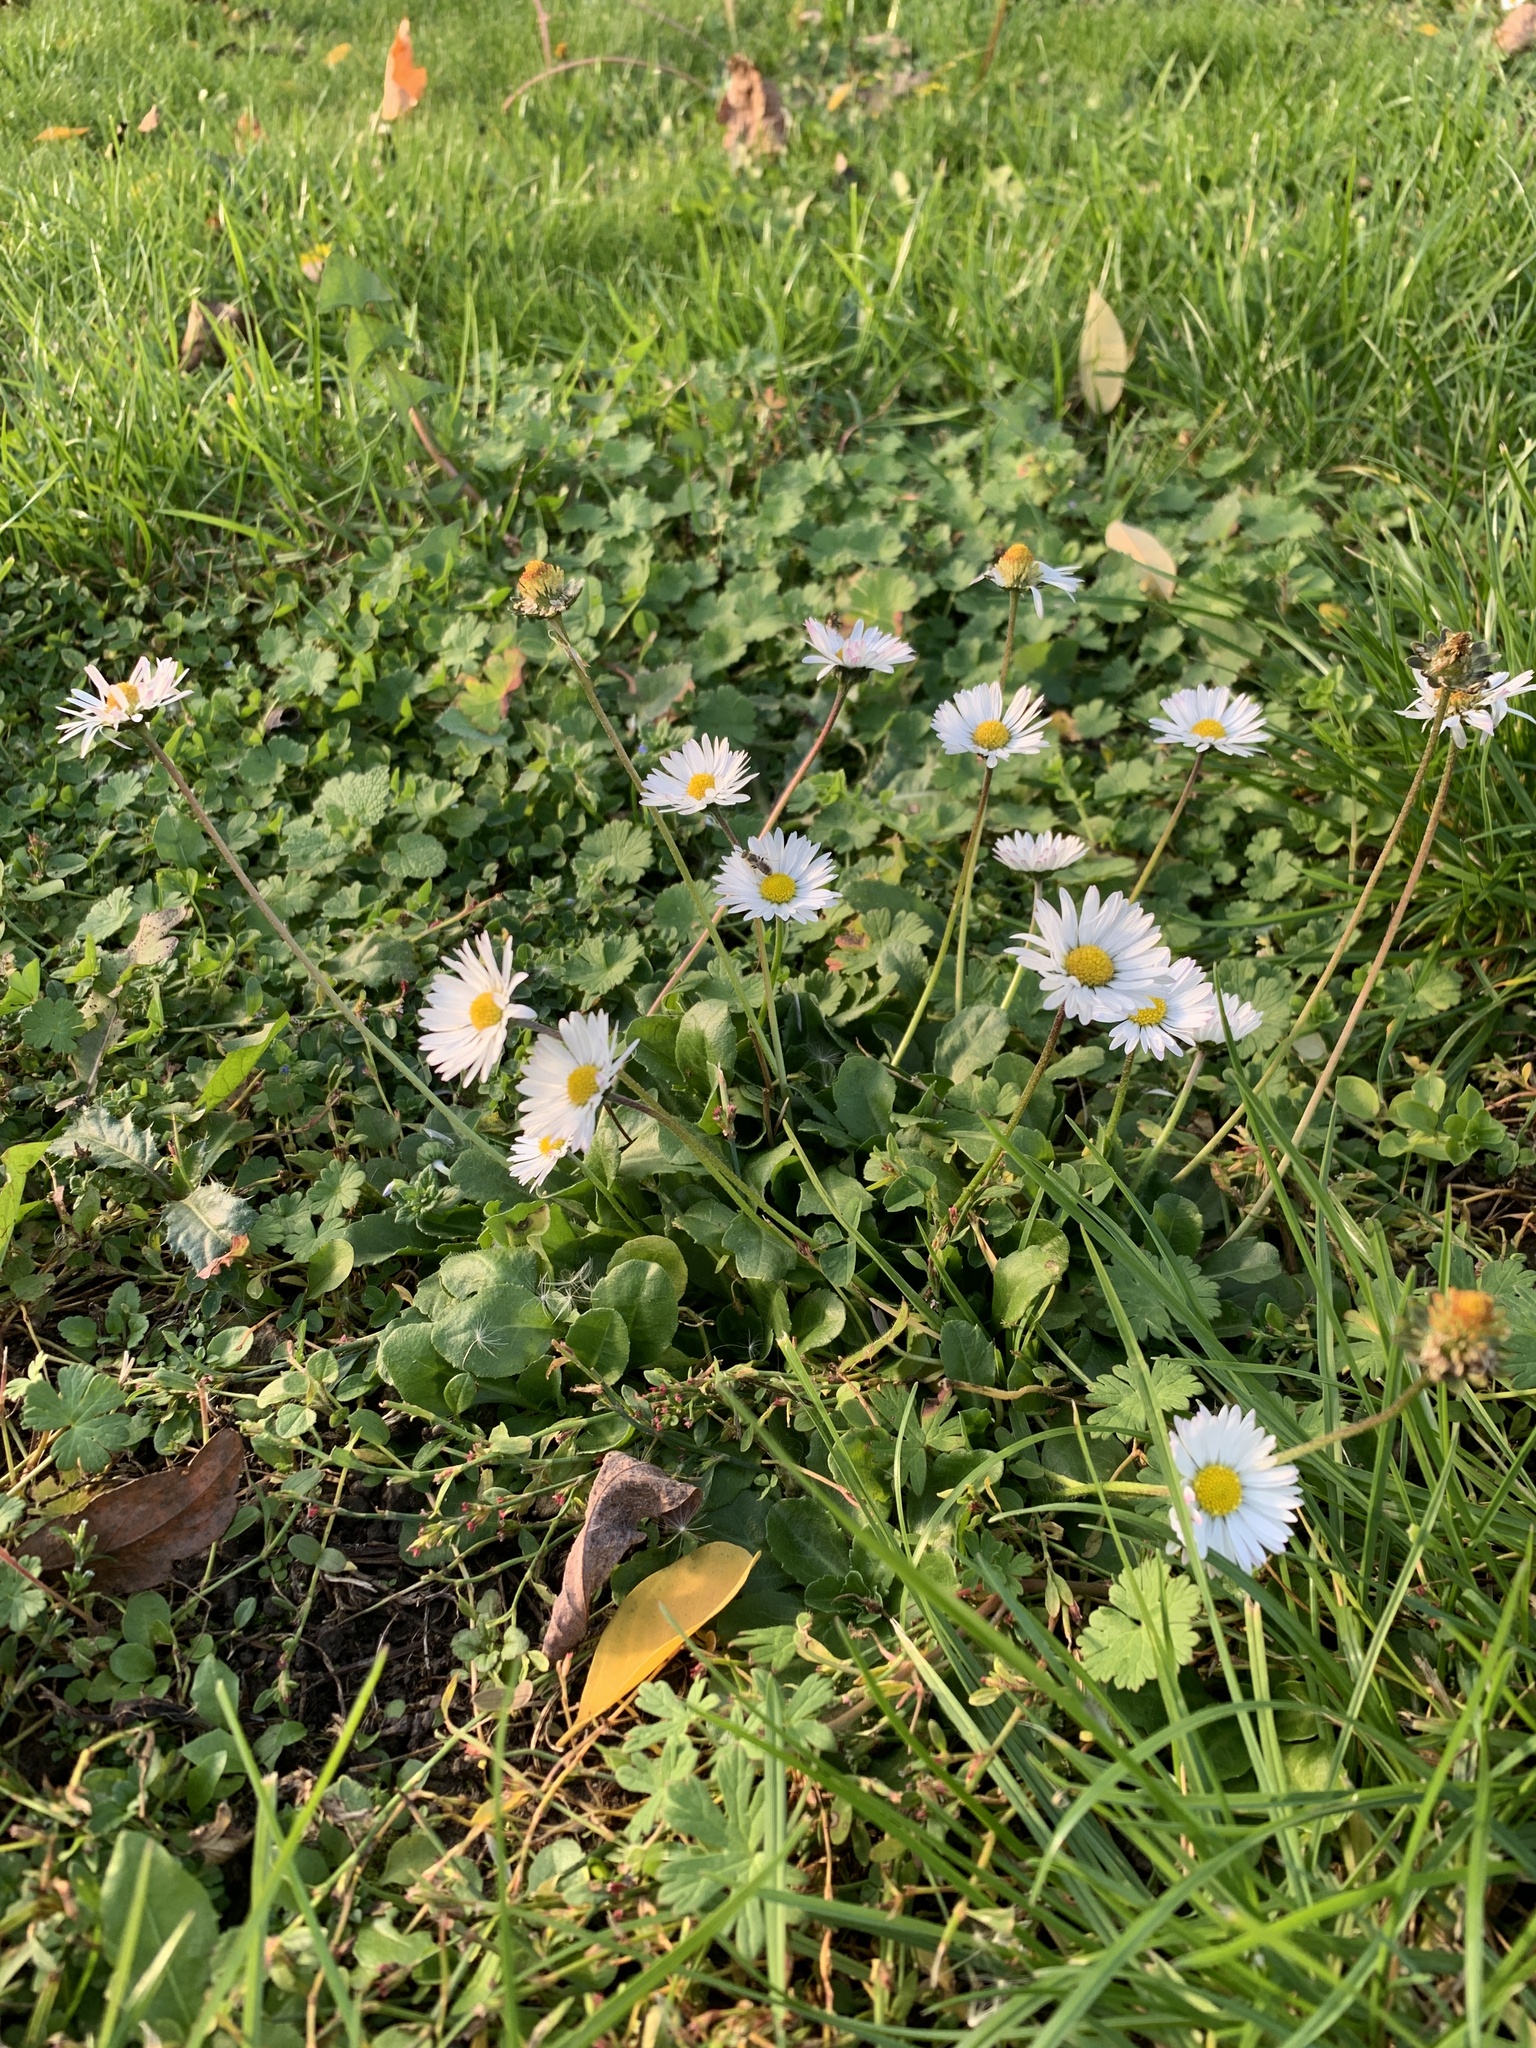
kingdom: Plantae
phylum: Tracheophyta
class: Magnoliopsida
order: Asterales
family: Asteraceae
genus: Bellis
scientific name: Bellis perennis
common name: Lawndaisy
